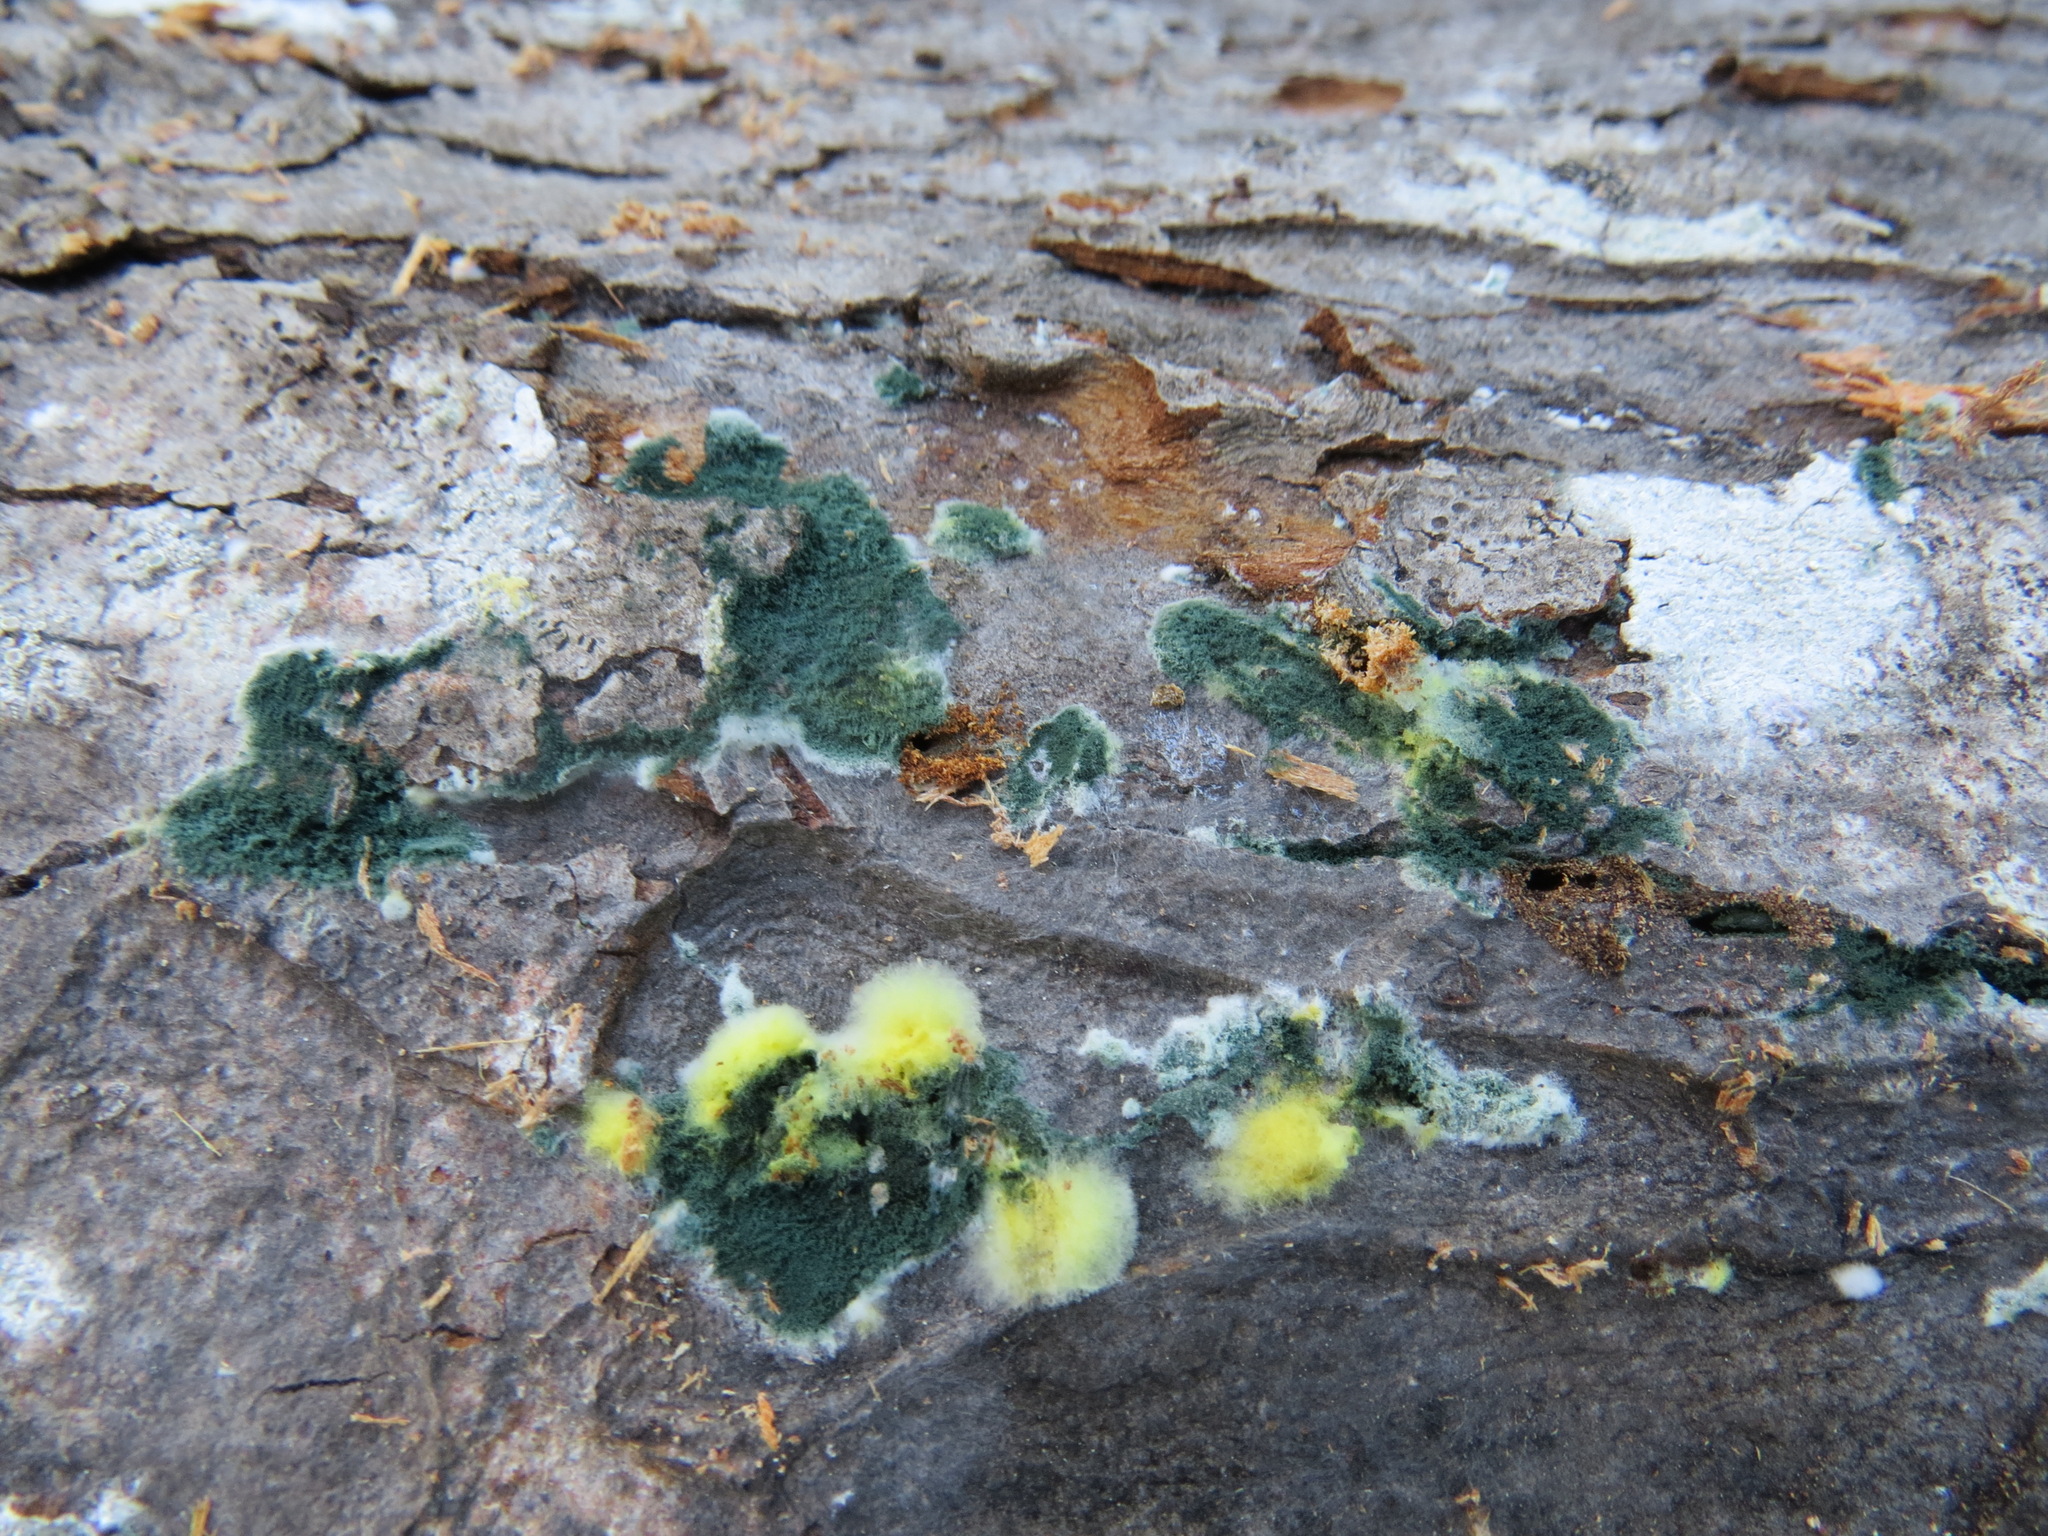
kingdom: Fungi
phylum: Ascomycota
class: Sordariomycetes
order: Hypocreales
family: Hypocreaceae
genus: Trichoderma
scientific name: Trichoderma viride
